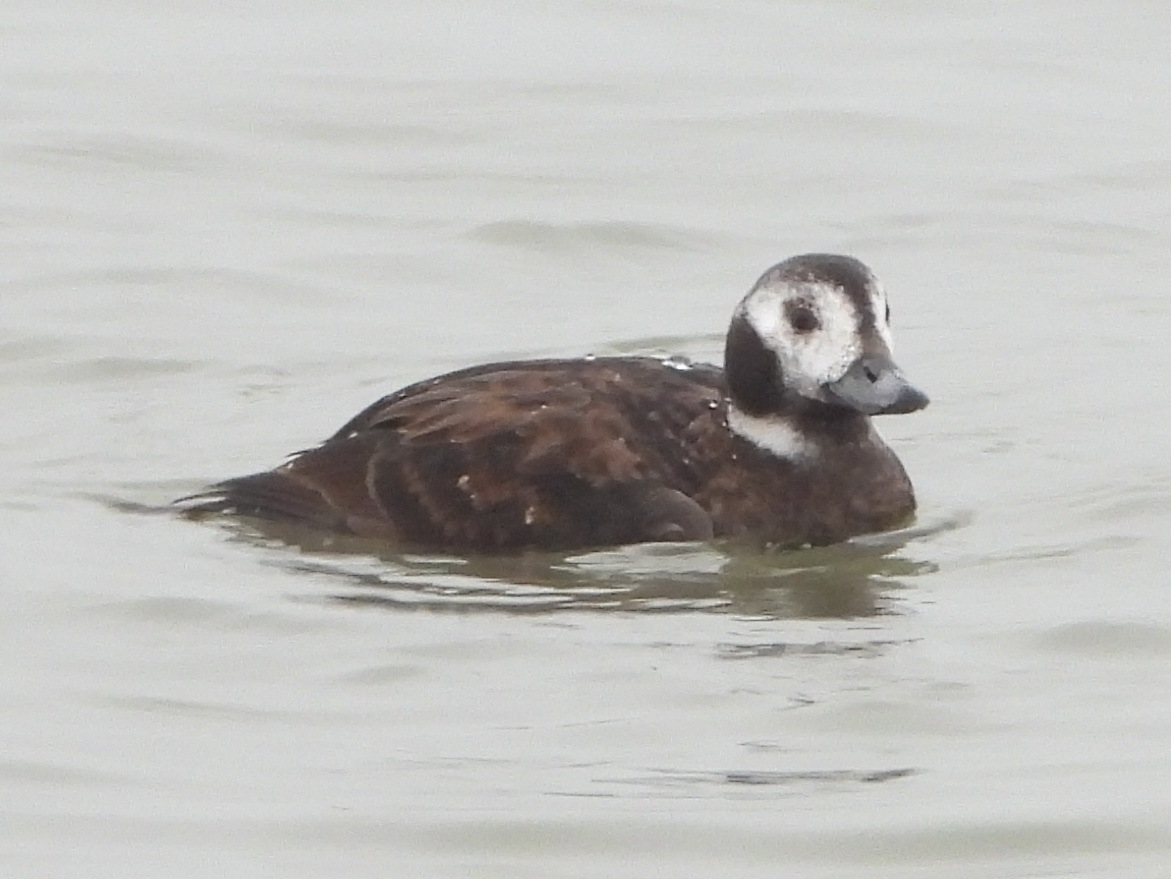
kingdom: Animalia
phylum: Chordata
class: Aves
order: Anseriformes
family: Anatidae
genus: Clangula
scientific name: Clangula hyemalis
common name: Long-tailed duck
